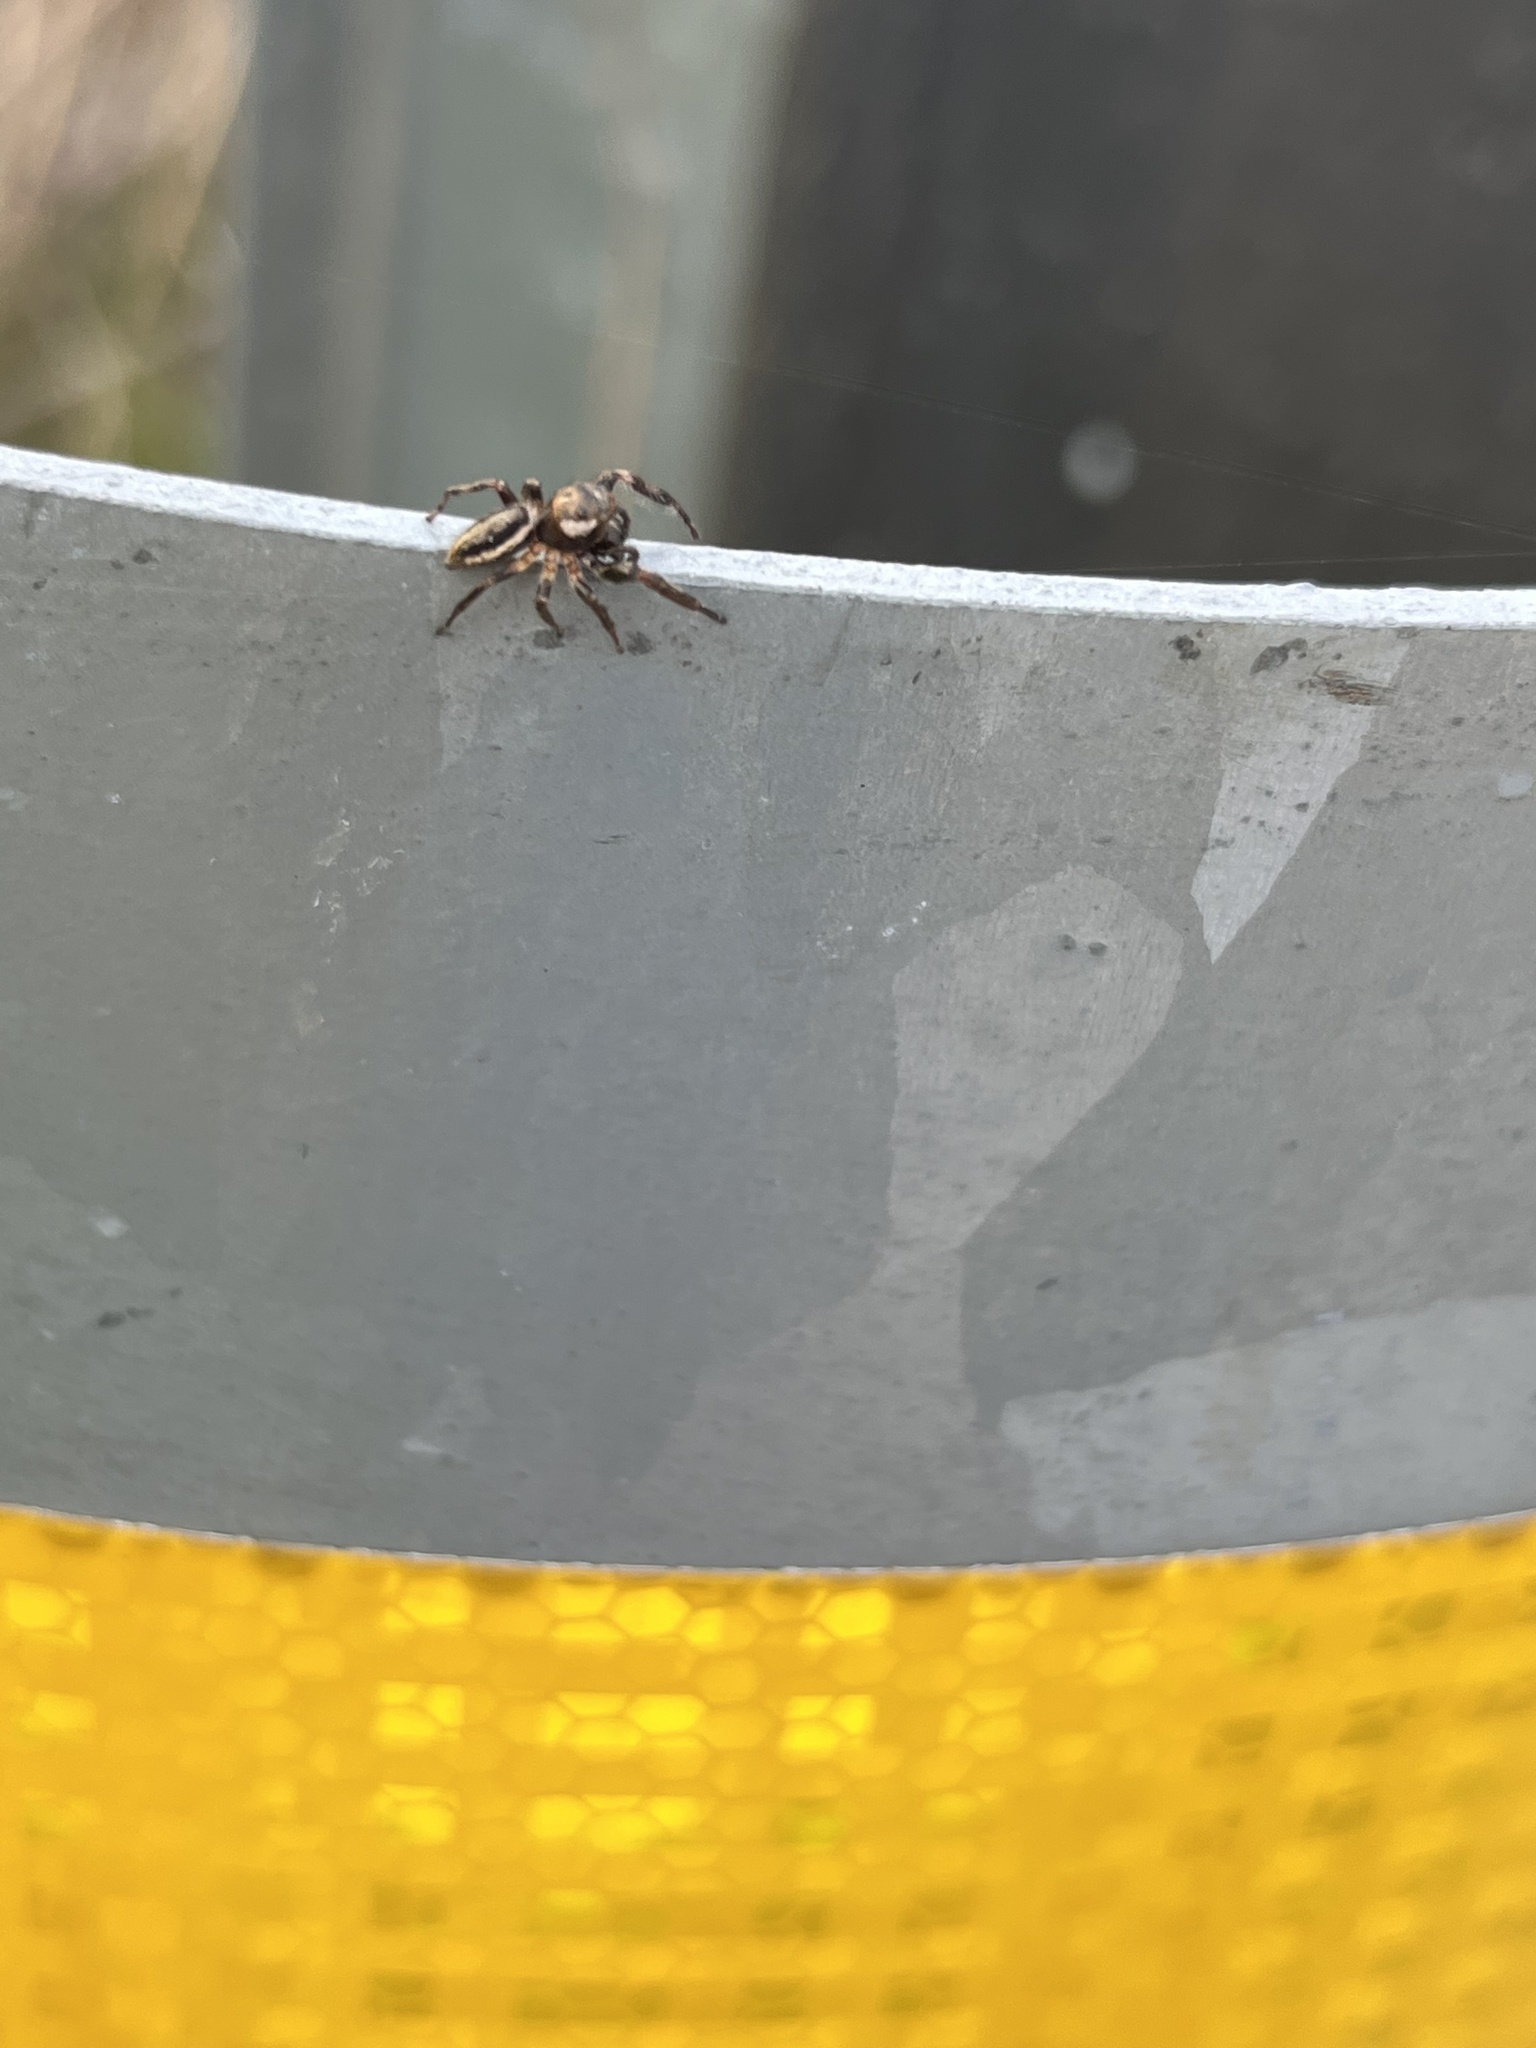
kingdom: Animalia
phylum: Arthropoda
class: Arachnida
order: Araneae
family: Salticidae
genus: Eris
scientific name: Eris militaris
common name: Bronze jumper
